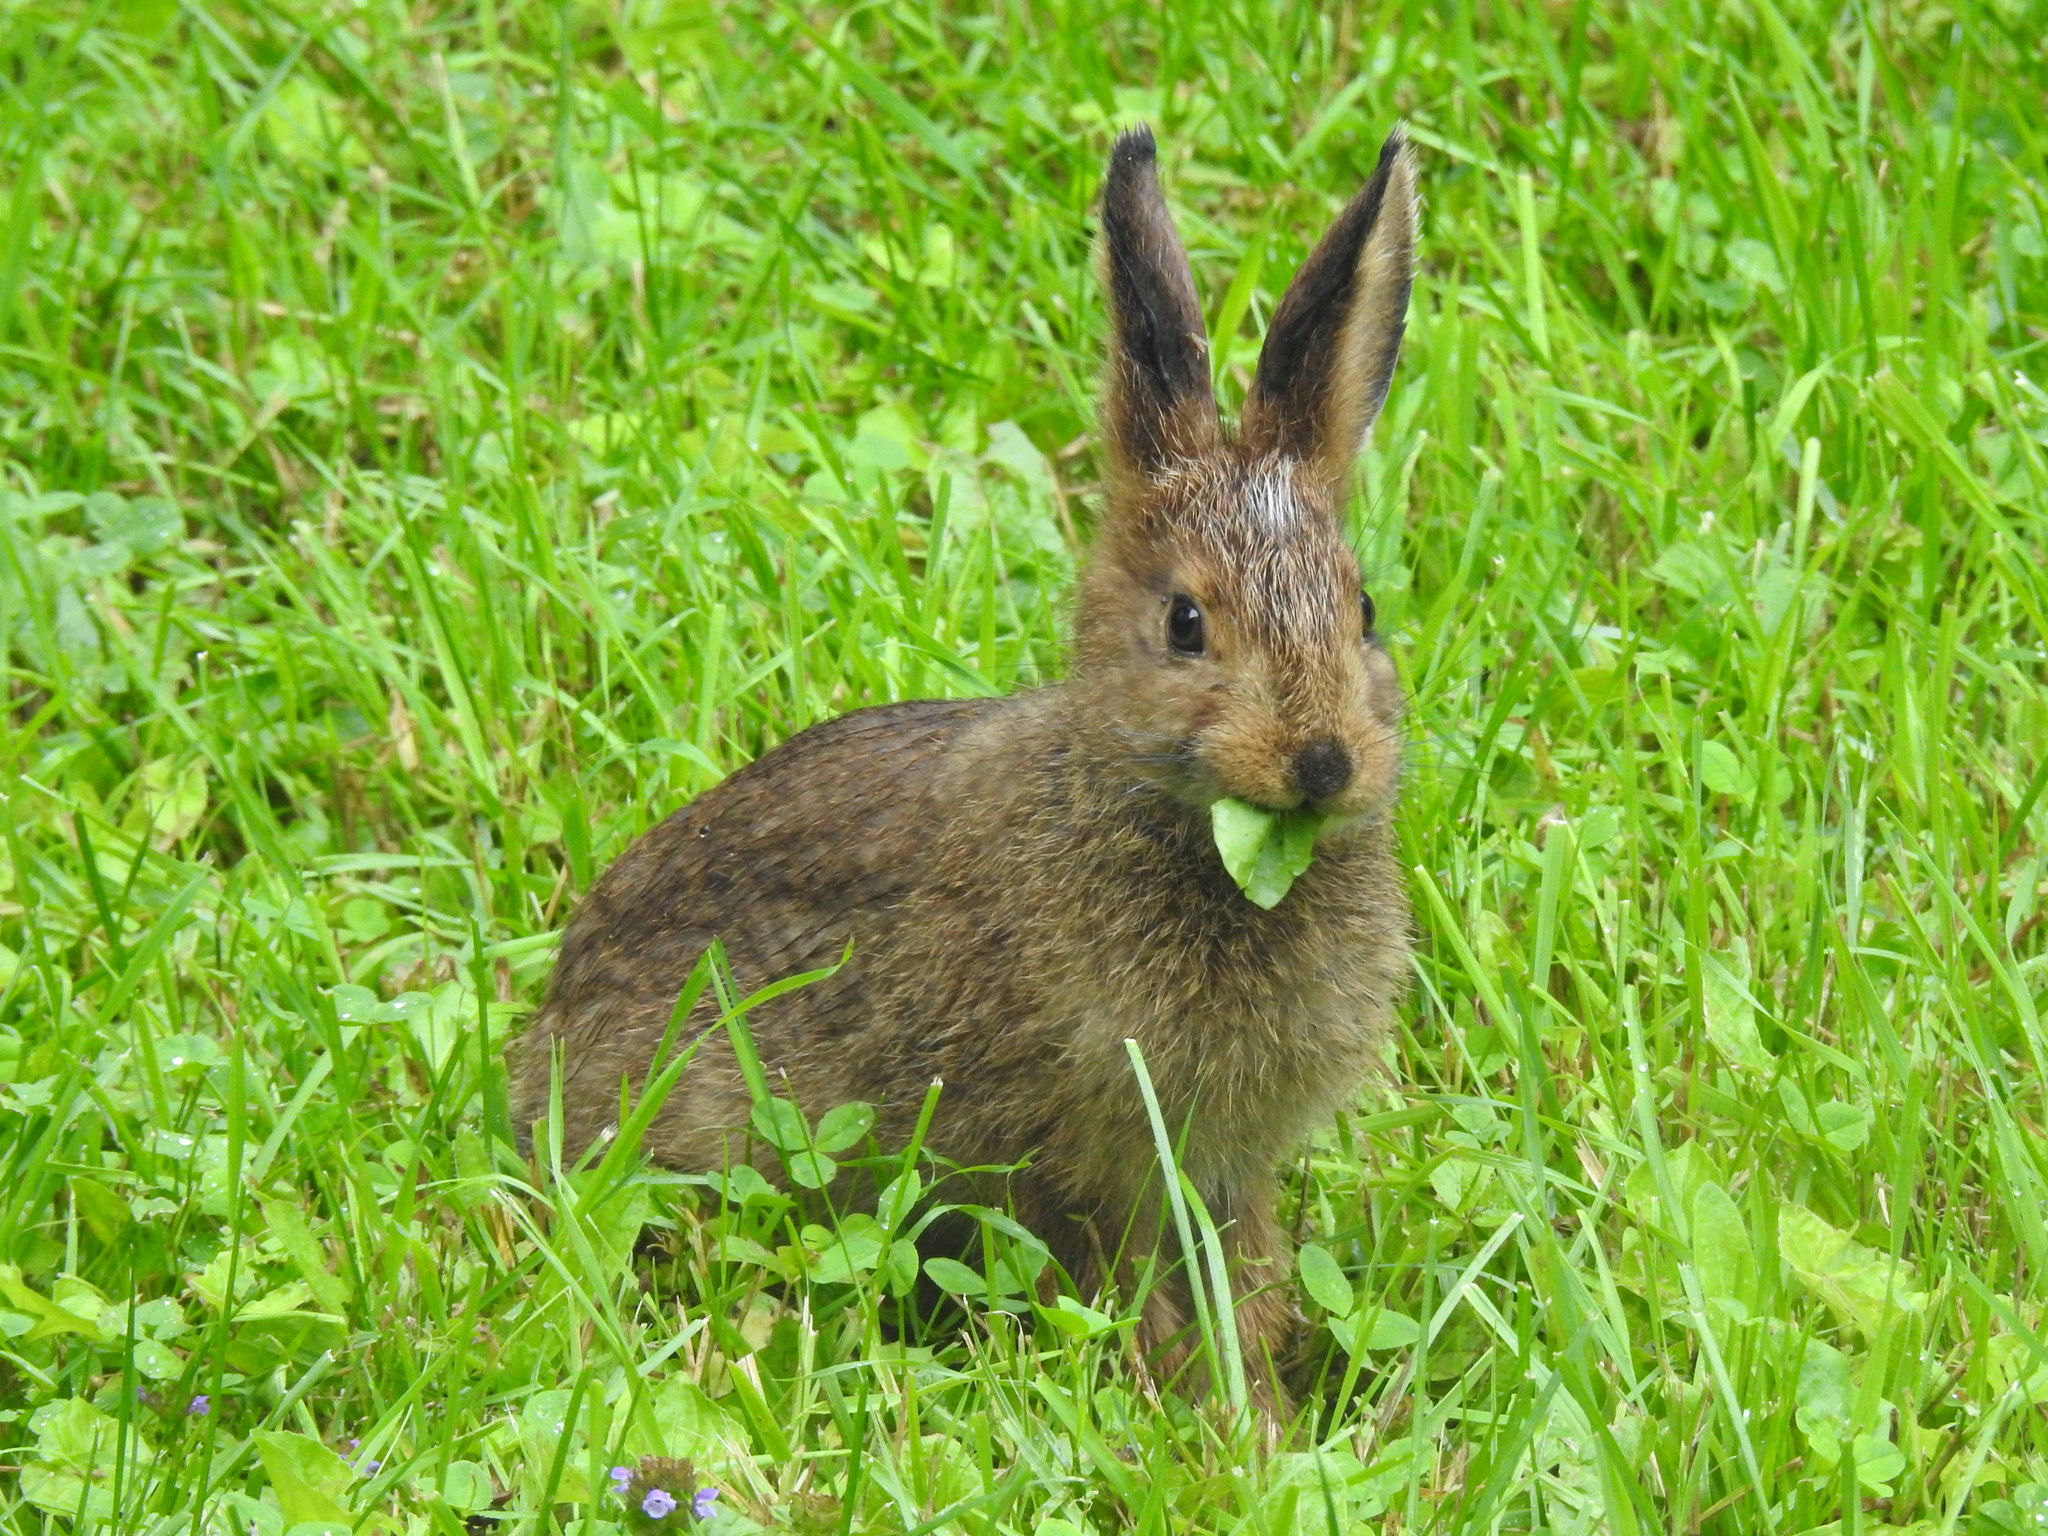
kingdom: Animalia
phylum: Chordata
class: Mammalia
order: Lagomorpha
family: Leporidae
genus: Lepus
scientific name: Lepus americanus
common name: Snowshoe hare
